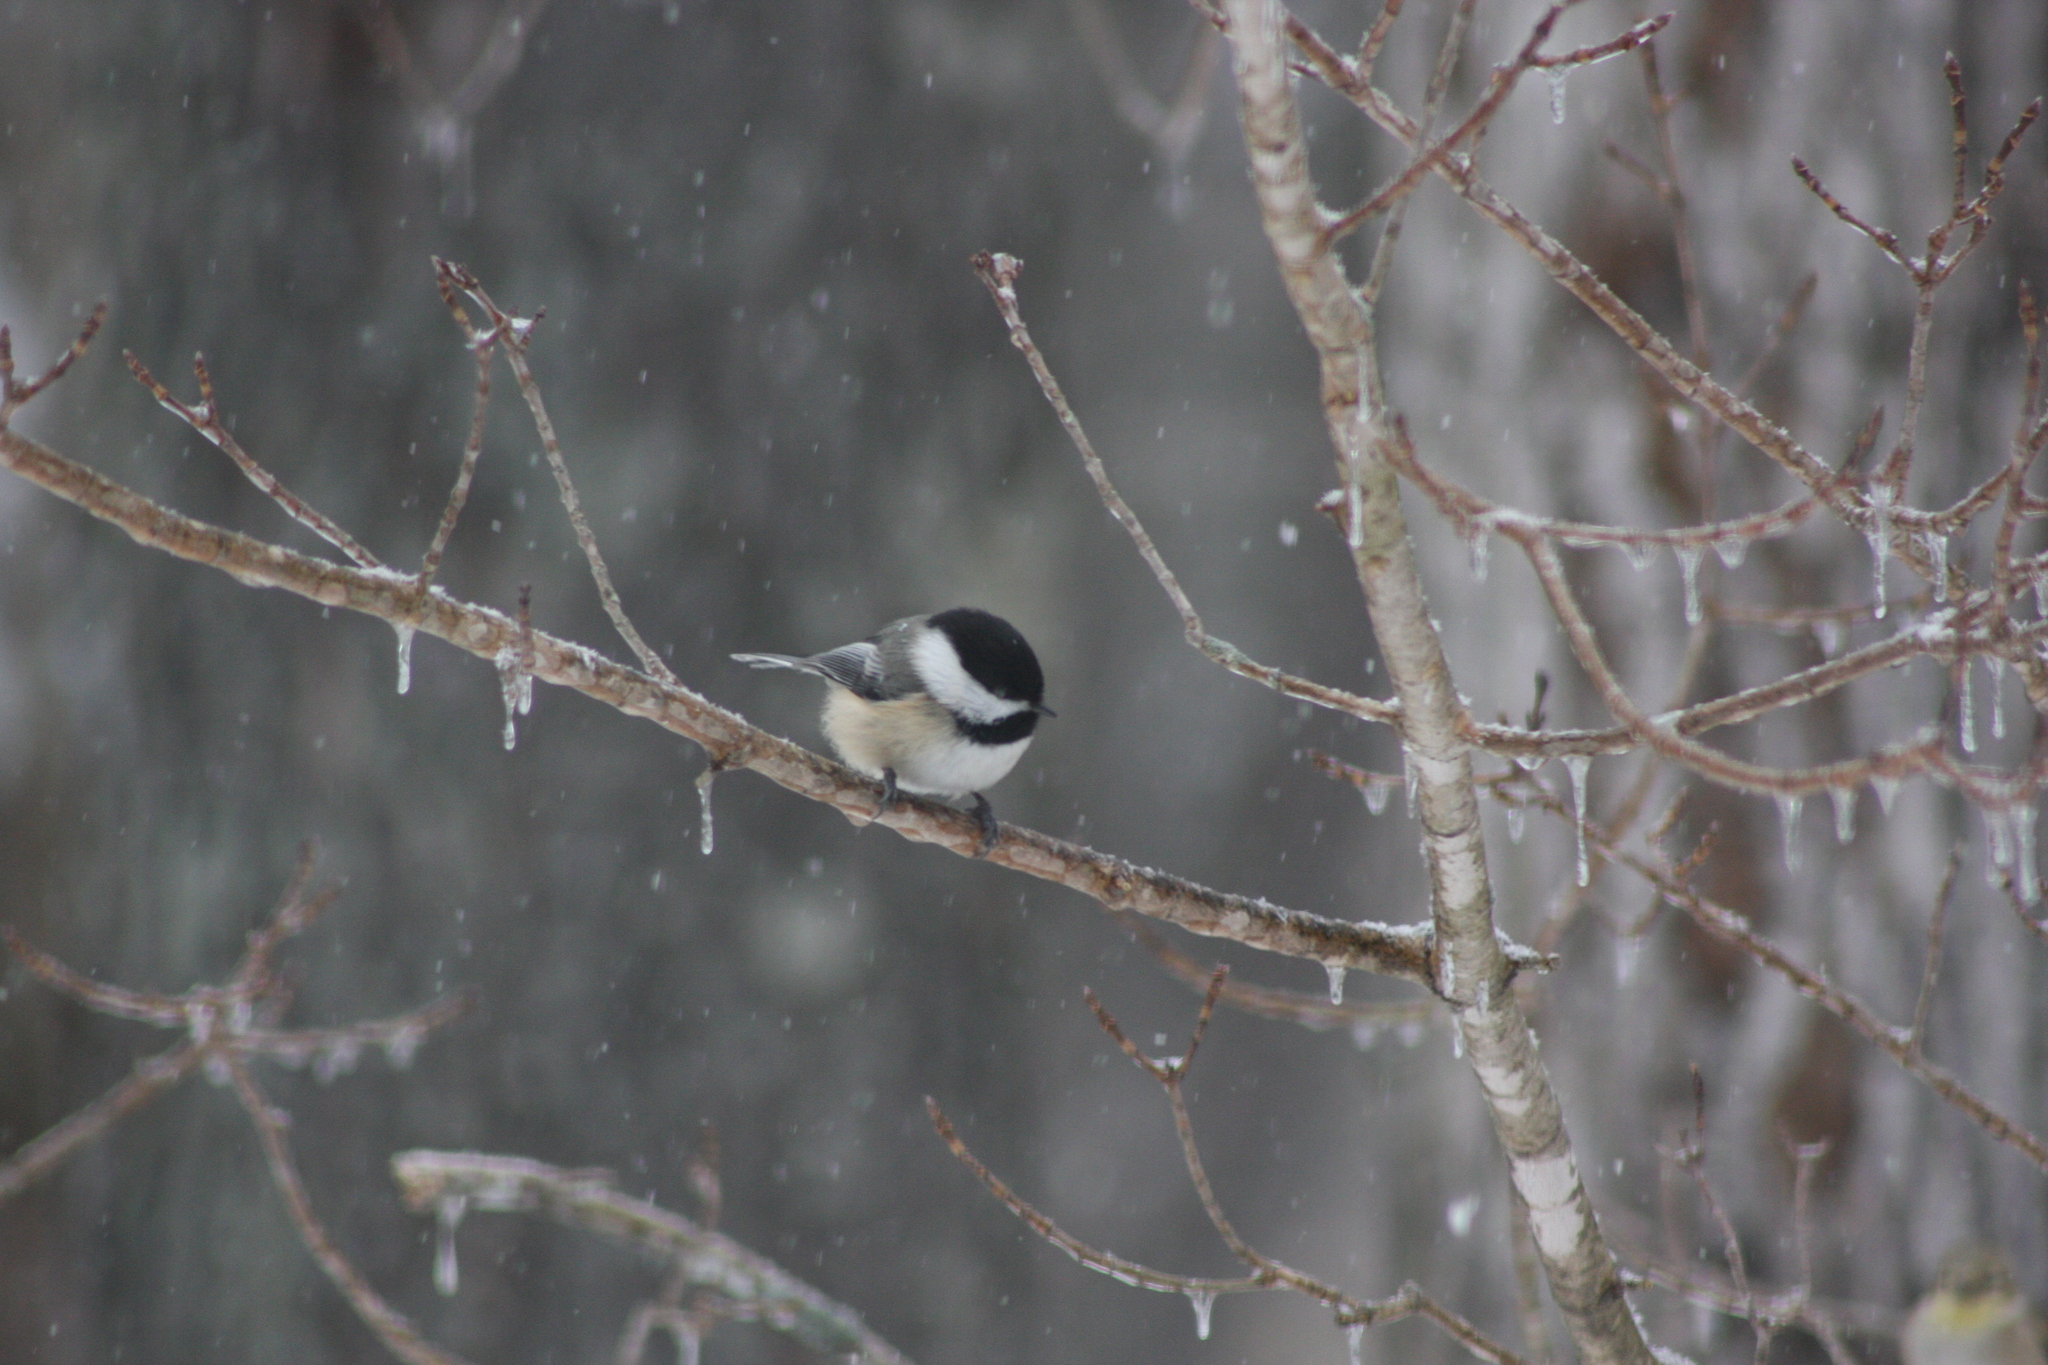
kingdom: Animalia
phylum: Chordata
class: Aves
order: Passeriformes
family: Paridae
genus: Poecile
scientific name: Poecile atricapillus
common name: Black-capped chickadee
